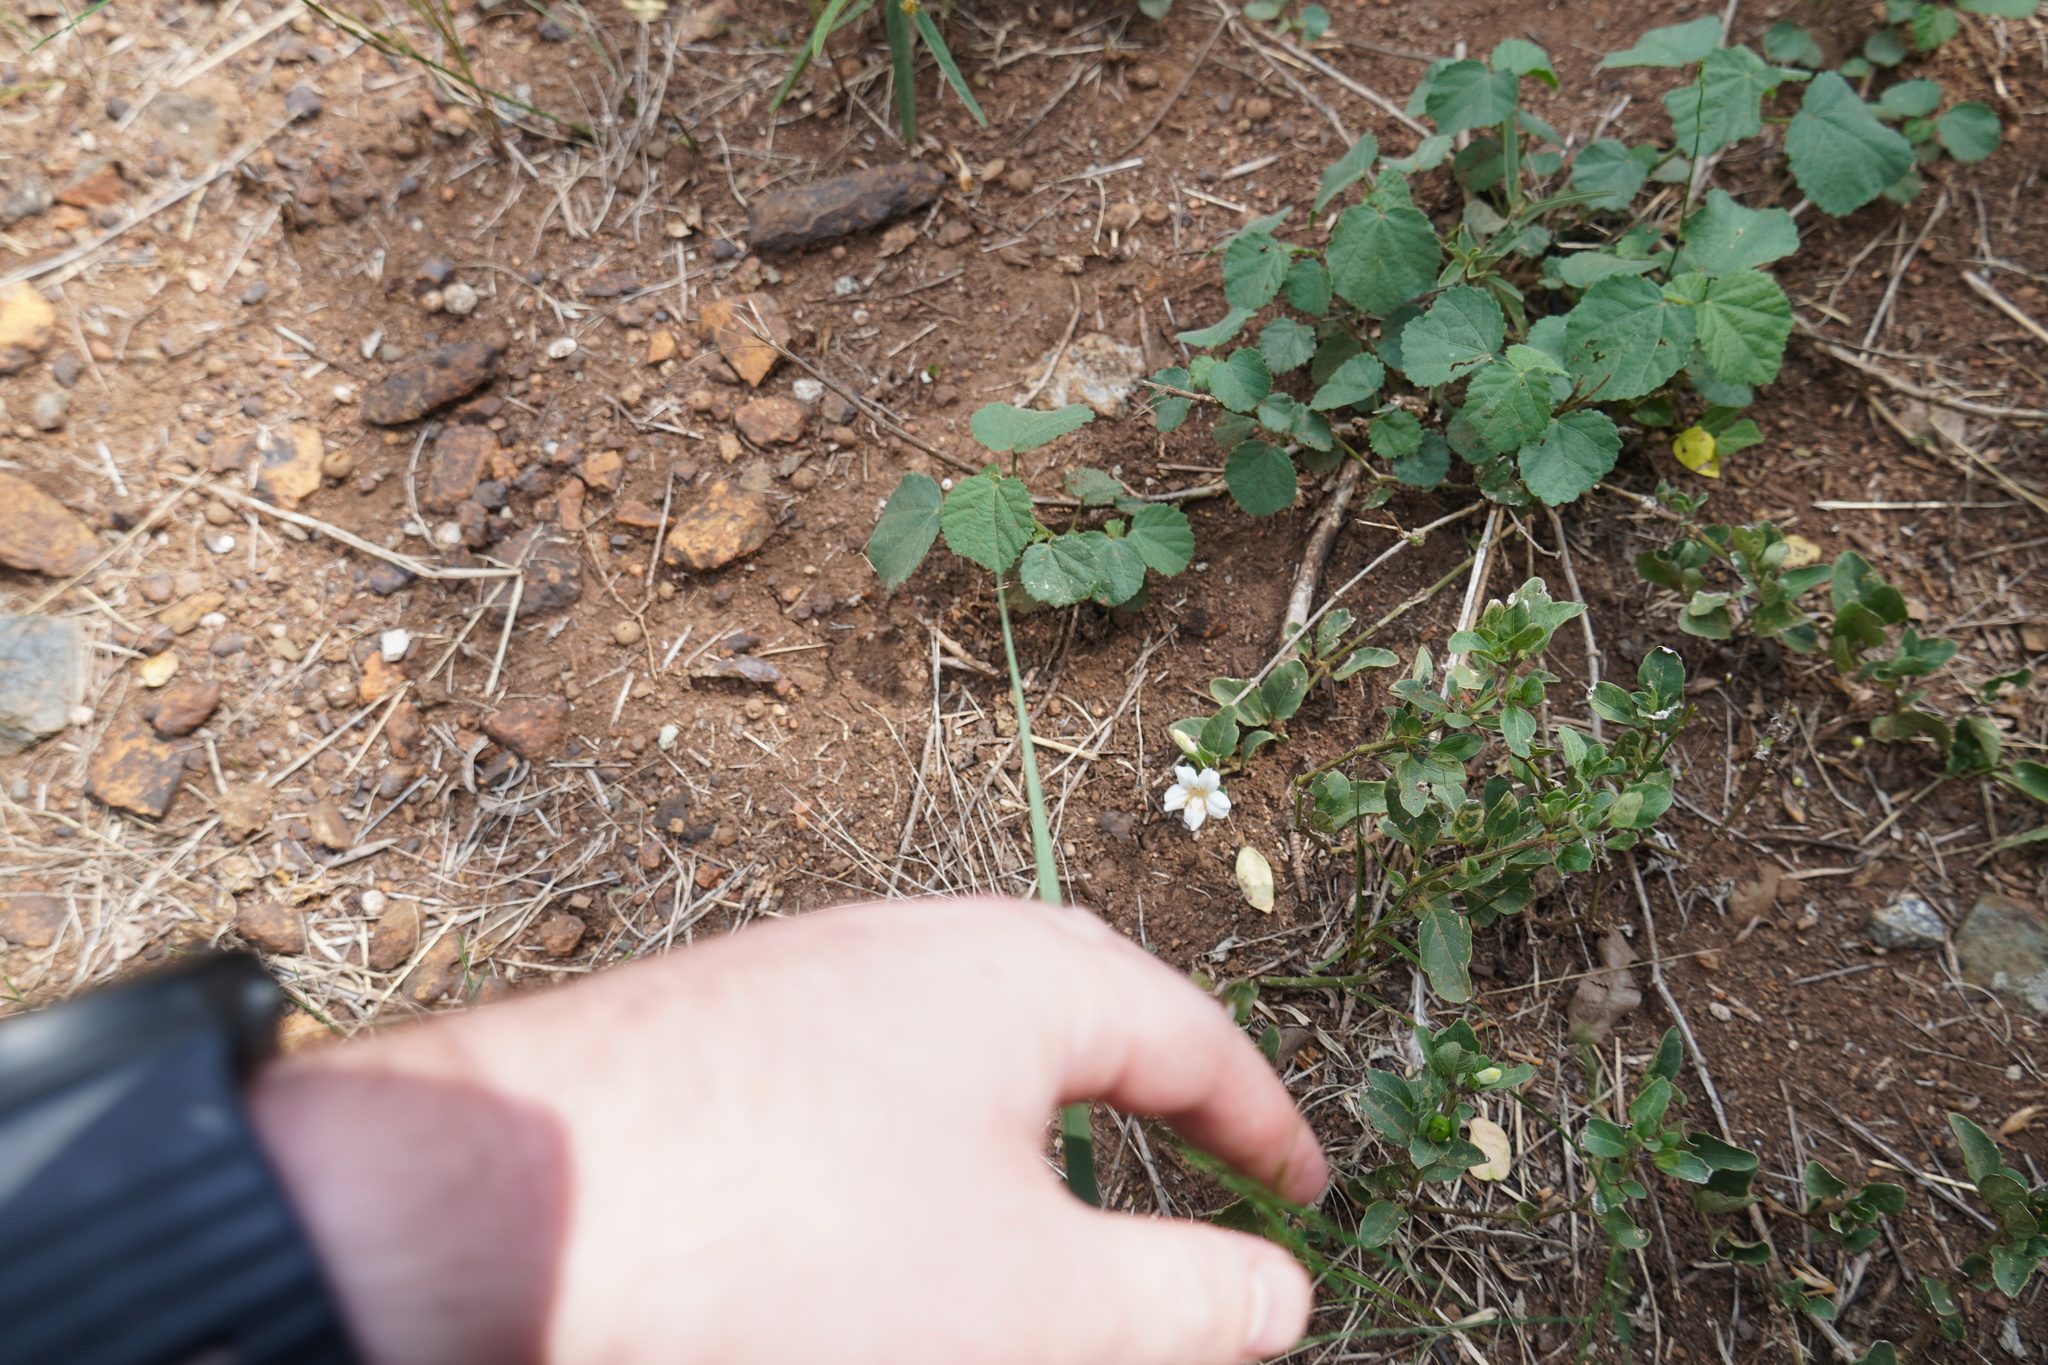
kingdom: Plantae
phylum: Tracheophyta
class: Magnoliopsida
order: Lamiales
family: Acanthaceae
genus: Ruellia
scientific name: Ruellia patula
